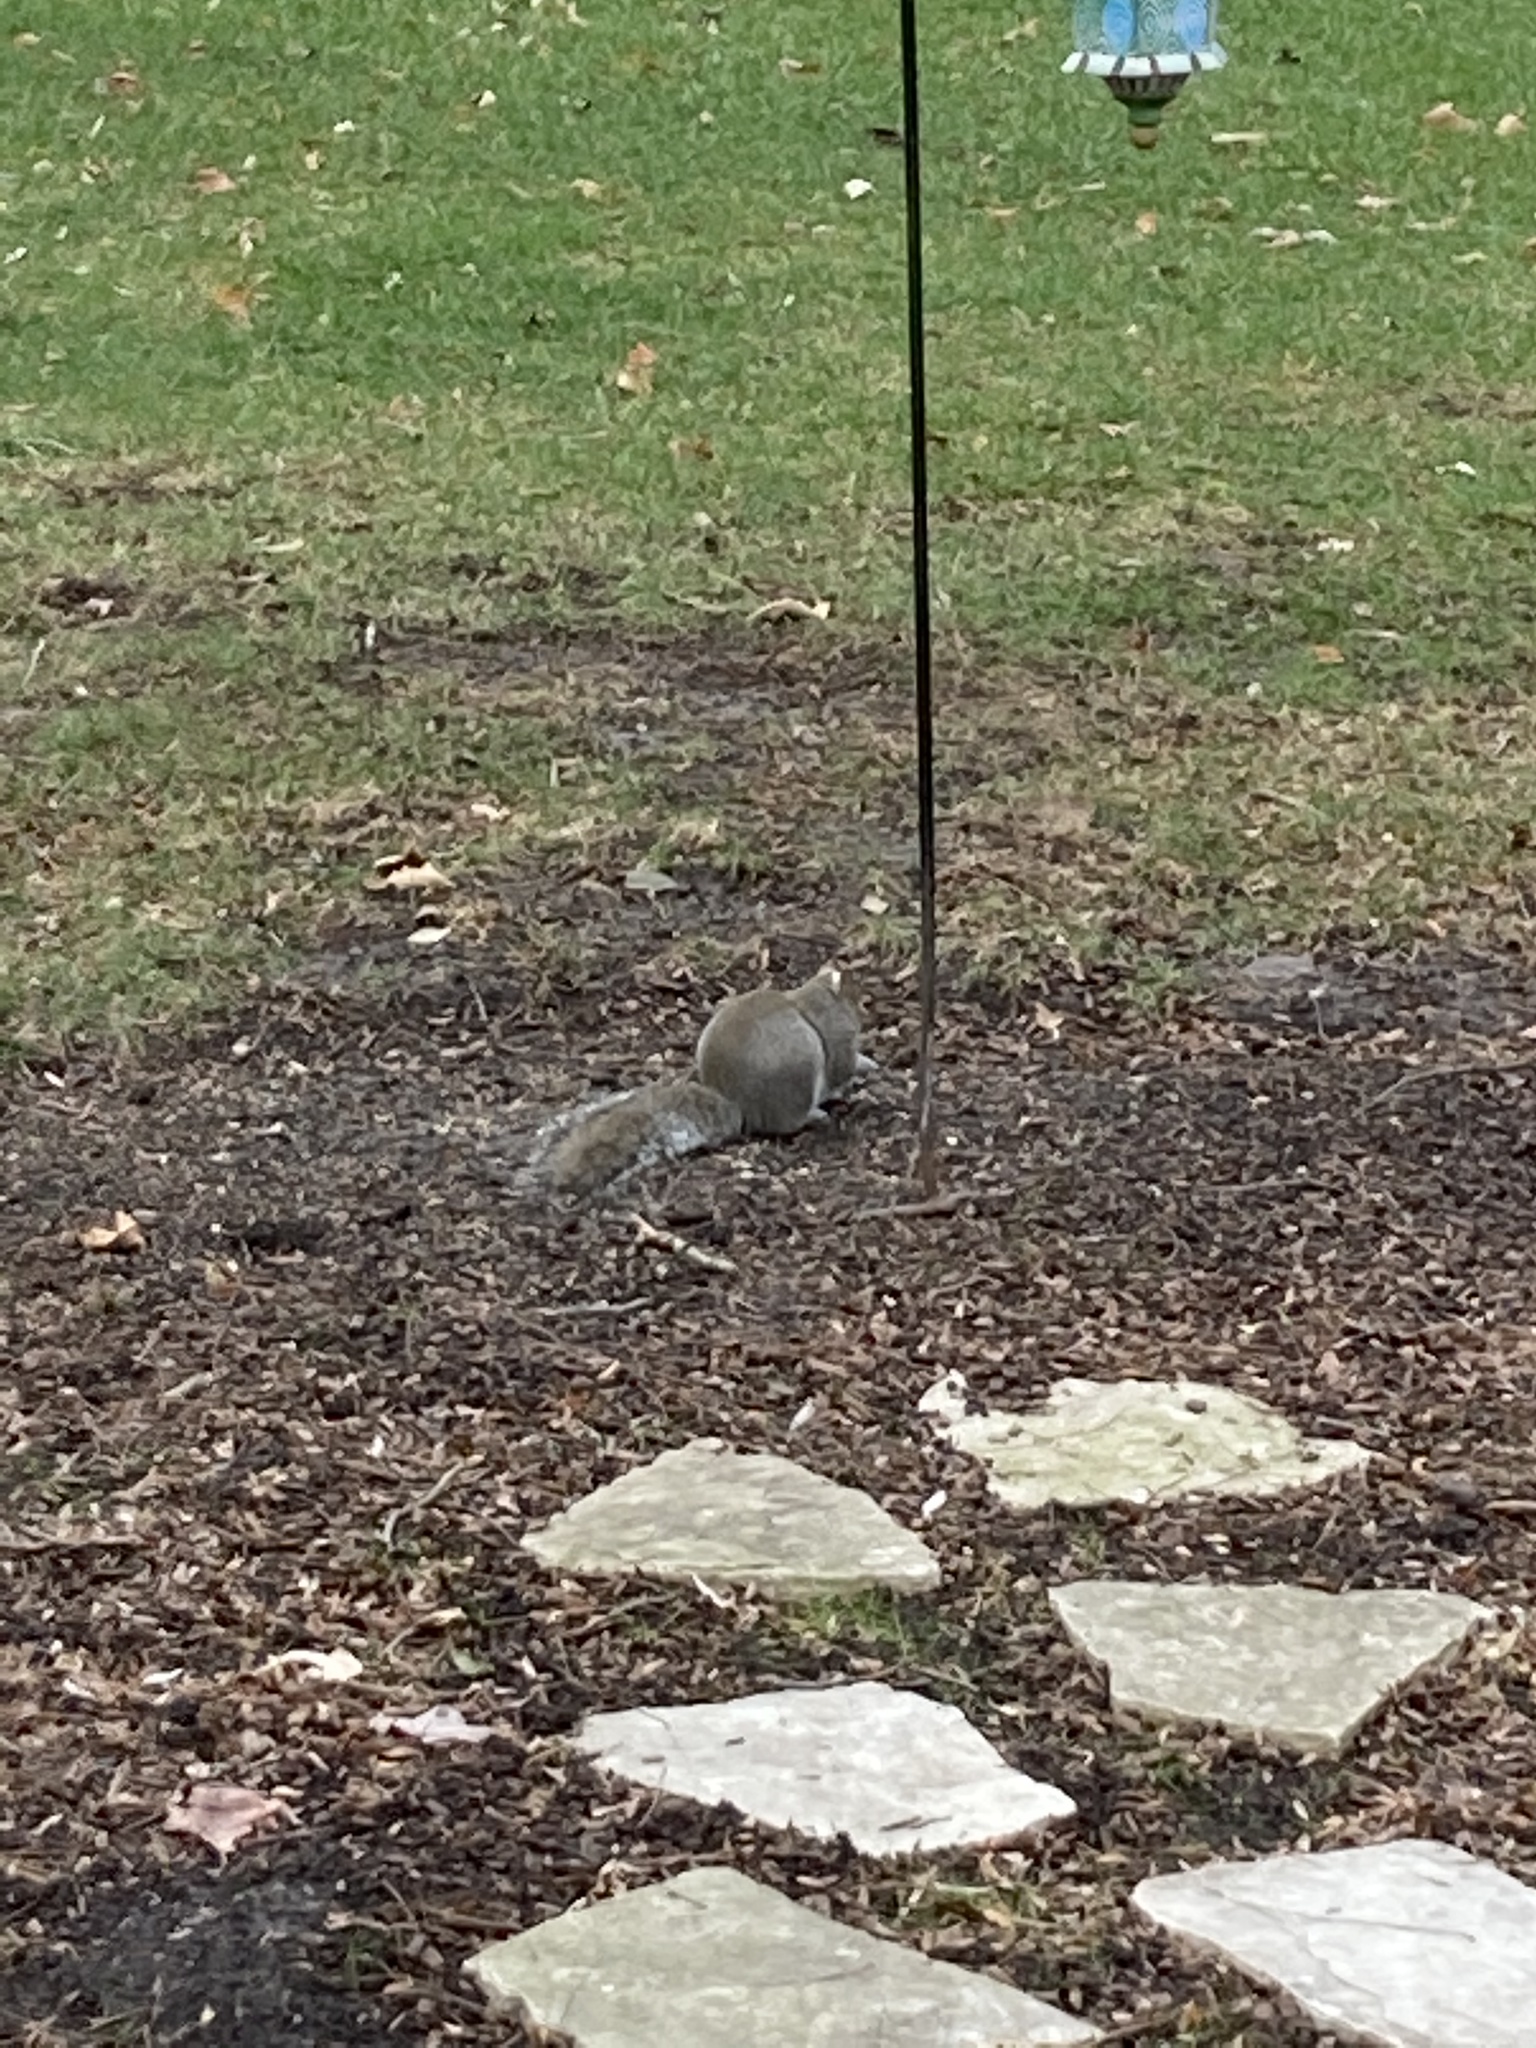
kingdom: Animalia
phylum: Chordata
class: Mammalia
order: Rodentia
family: Sciuridae
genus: Sciurus
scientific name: Sciurus carolinensis
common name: Eastern gray squirrel
